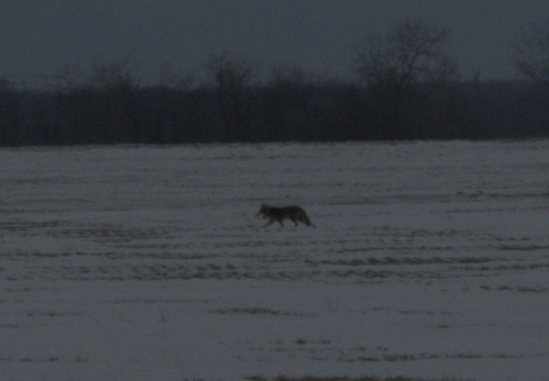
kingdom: Animalia
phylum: Chordata
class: Mammalia
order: Carnivora
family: Canidae
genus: Canis
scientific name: Canis latrans
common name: Coyote
